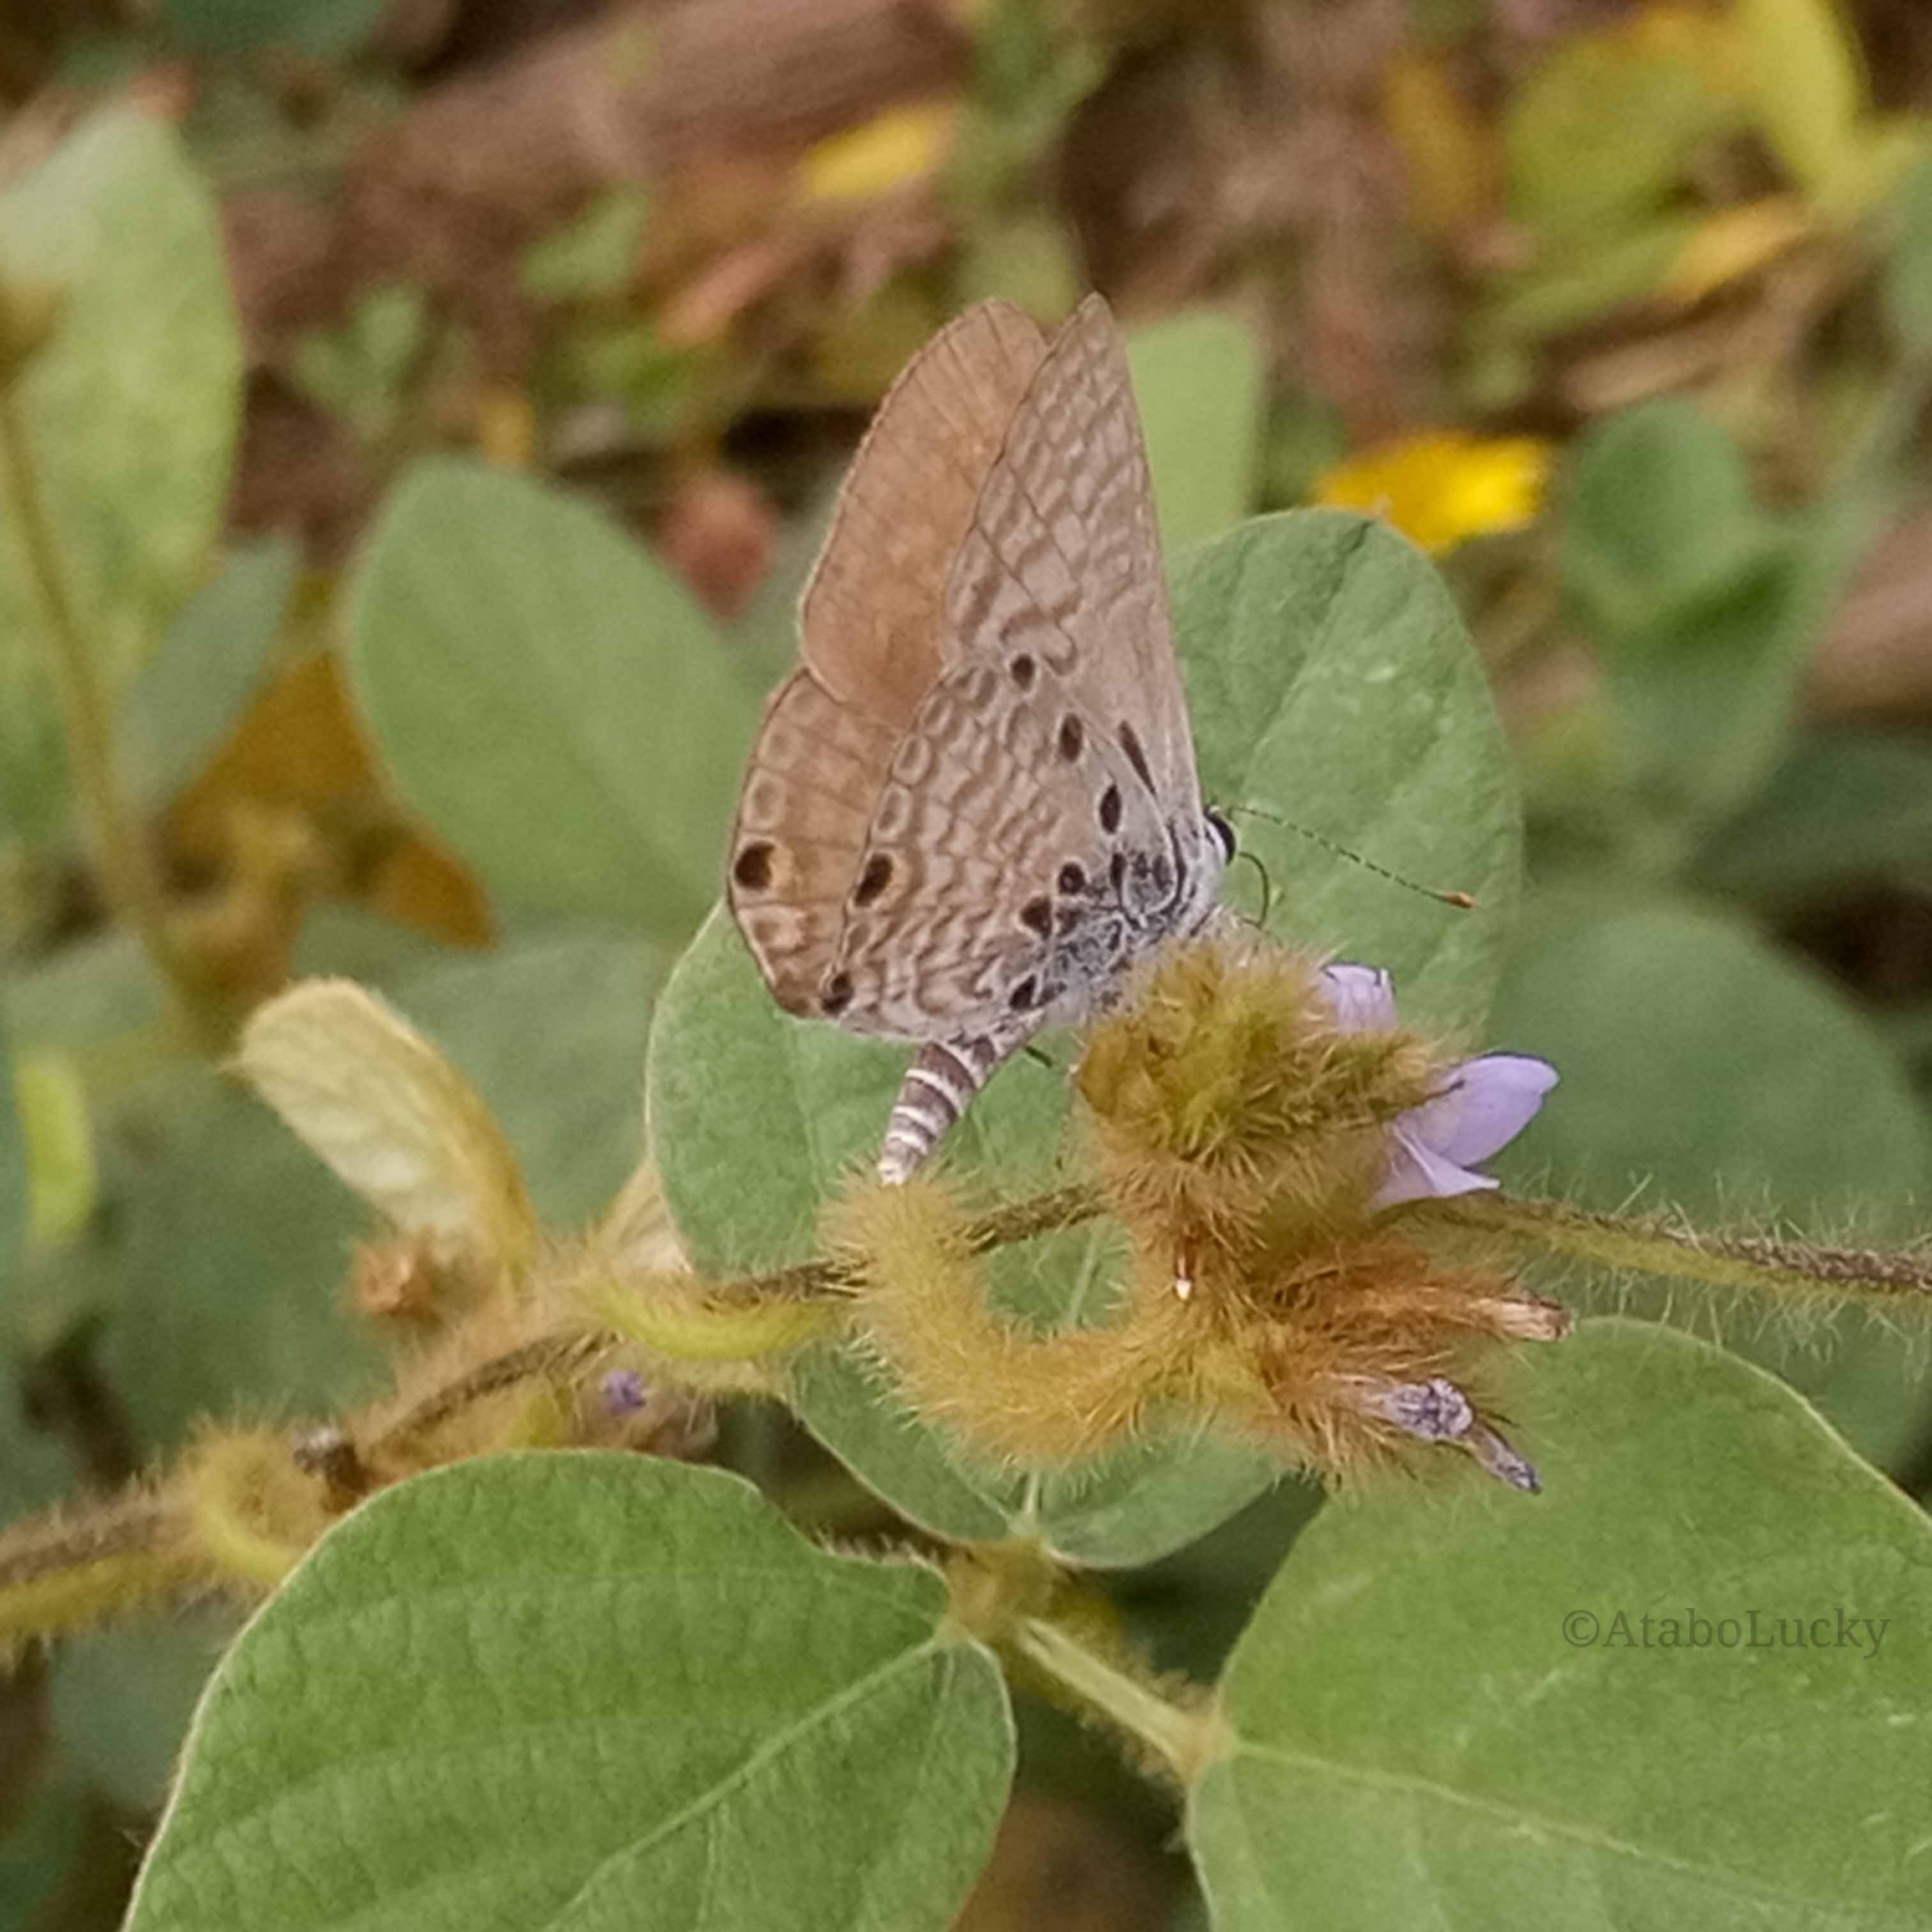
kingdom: Animalia
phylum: Arthropoda
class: Insecta
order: Lepidoptera
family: Lycaenidae
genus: Anthene
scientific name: Anthene amarah
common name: Black-striped hairtail
